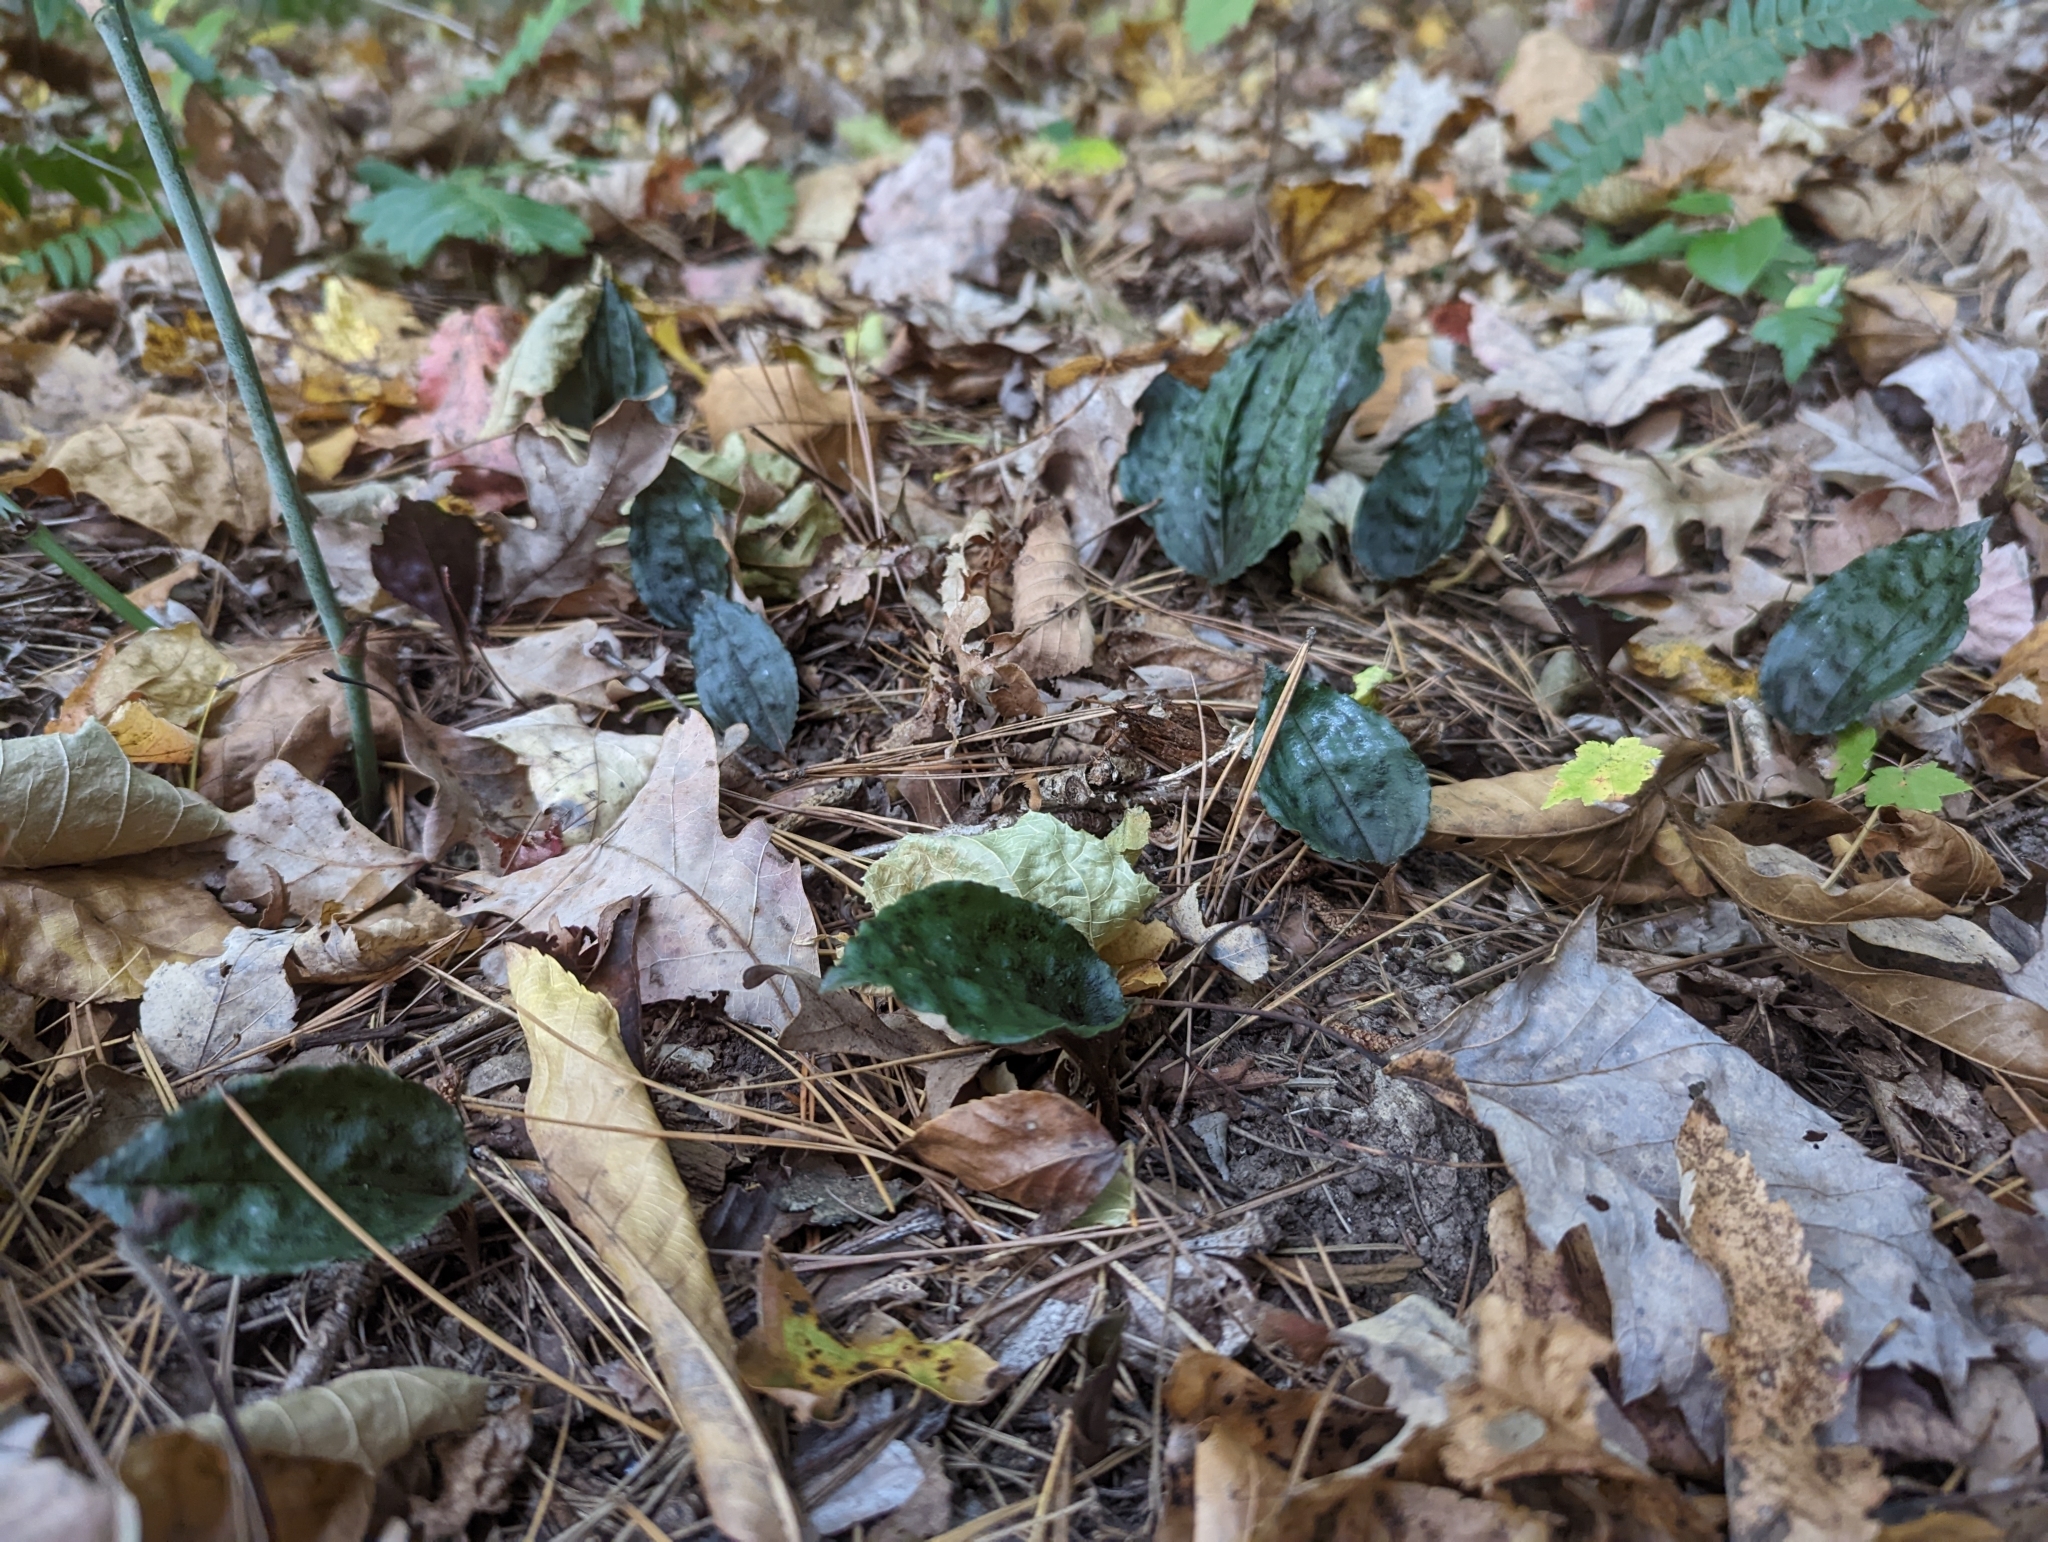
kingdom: Plantae
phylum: Tracheophyta
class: Liliopsida
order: Asparagales
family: Orchidaceae
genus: Tipularia
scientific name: Tipularia discolor
